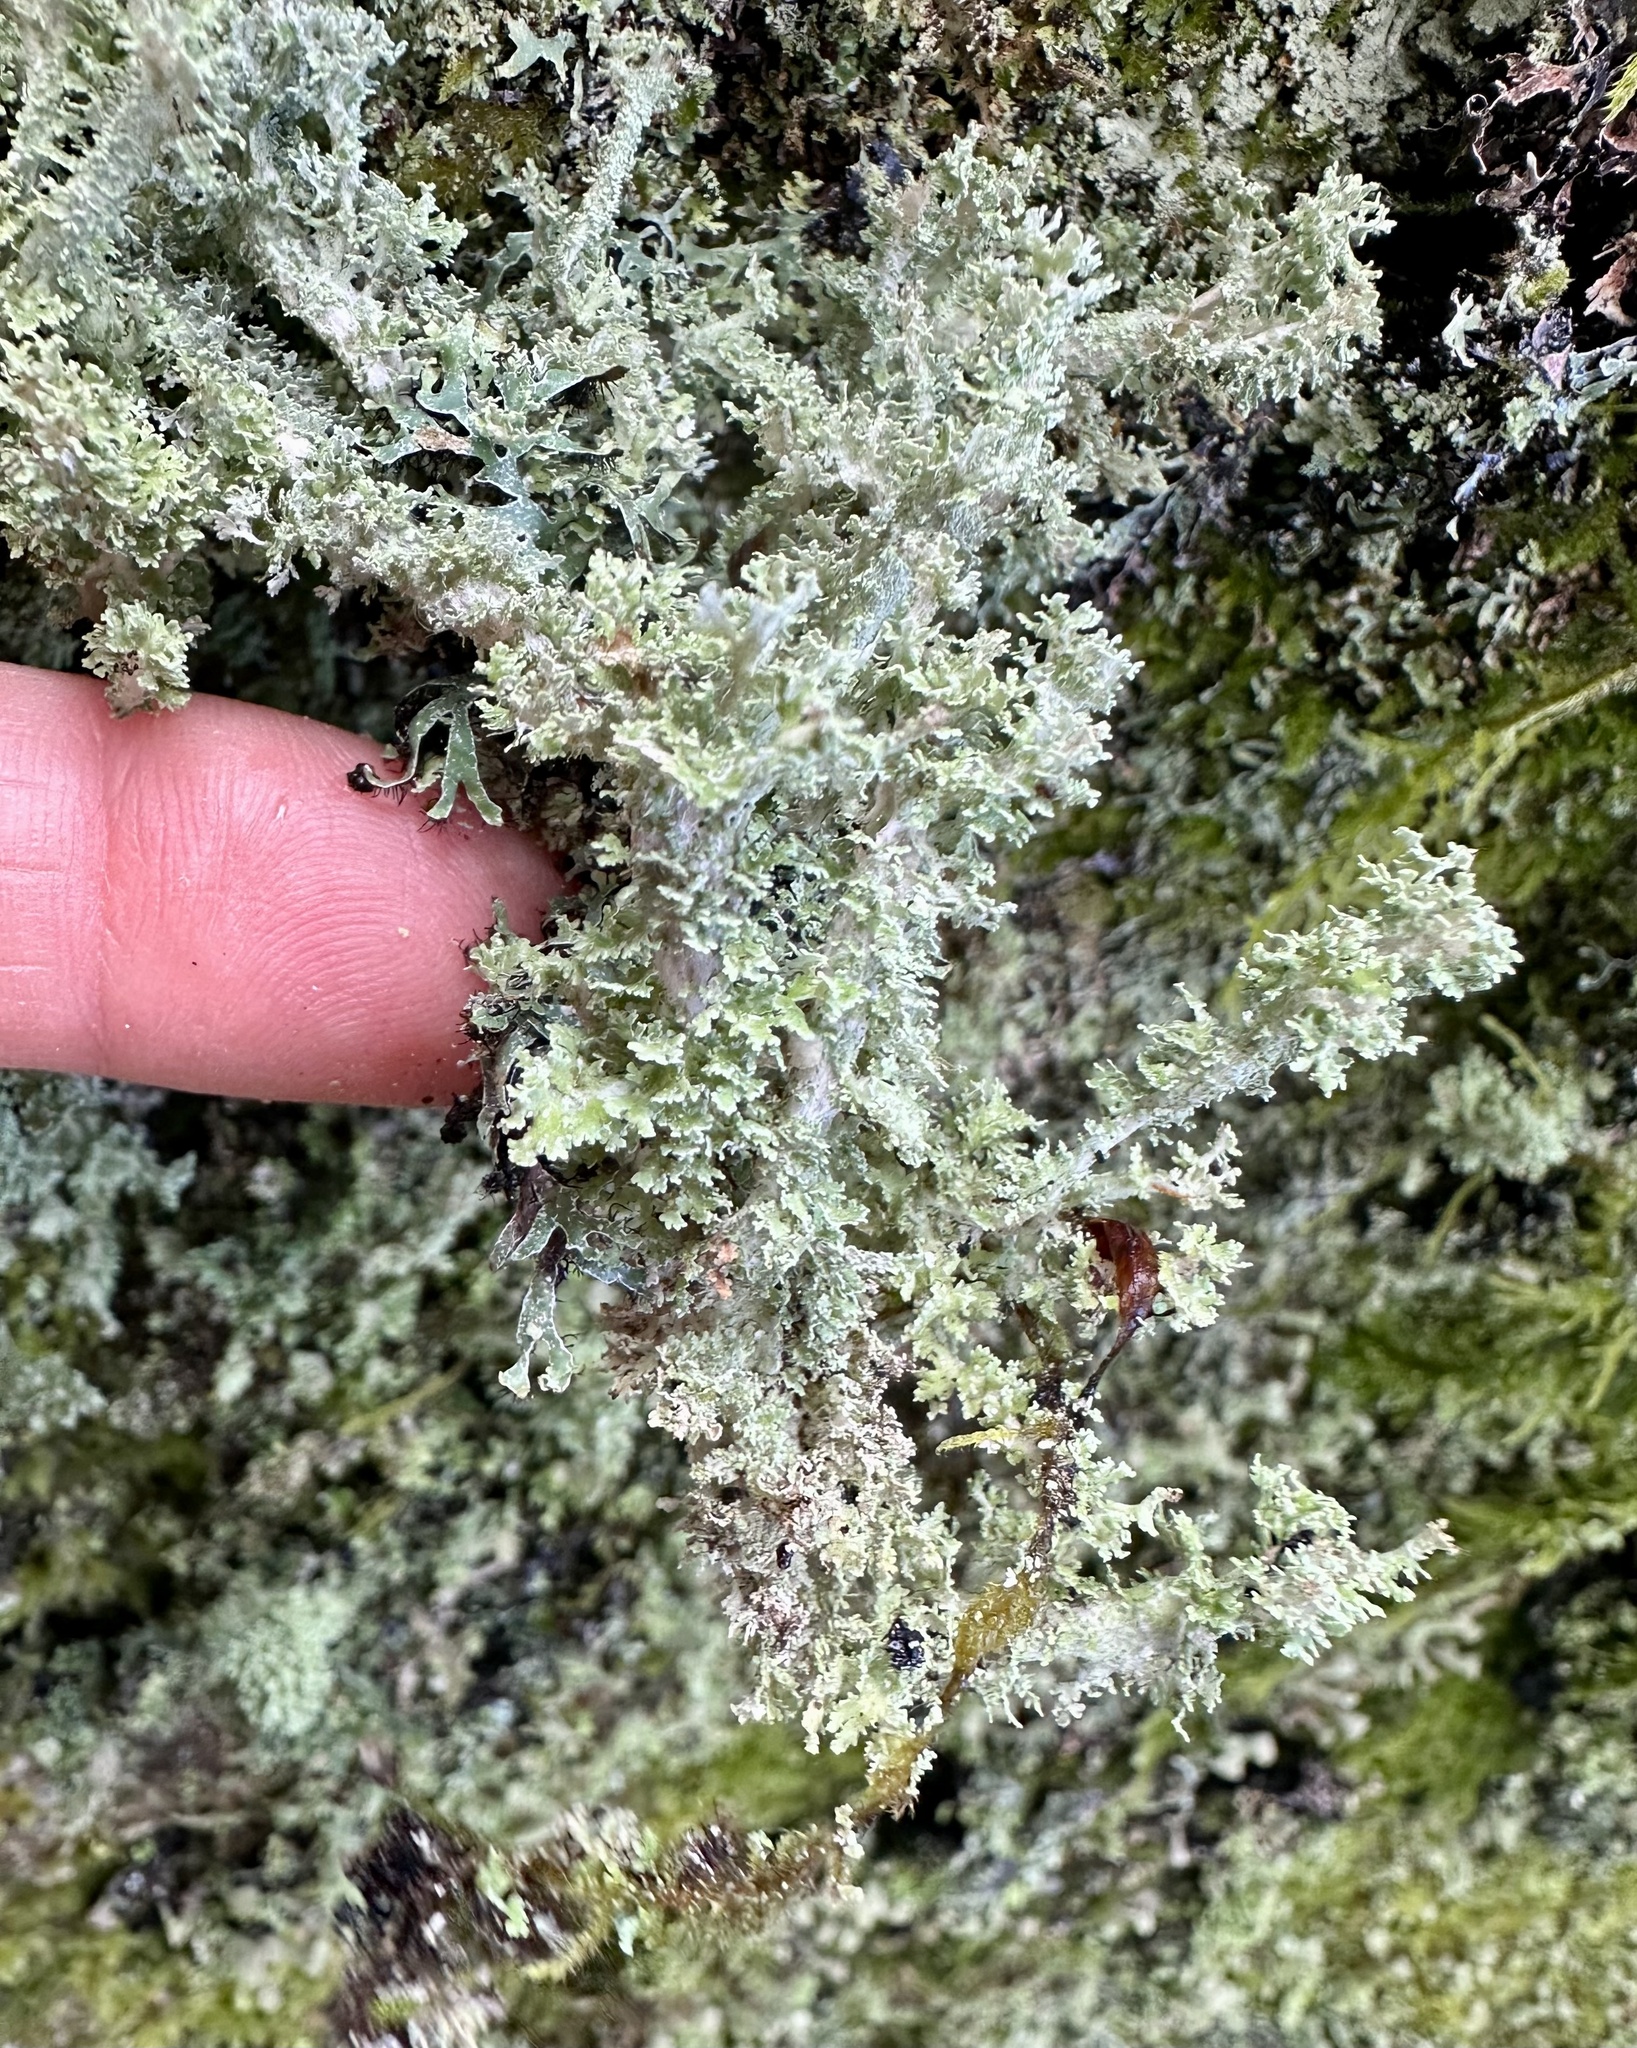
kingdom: Fungi
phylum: Ascomycota
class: Lecanoromycetes
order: Lecanorales
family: Cladoniaceae
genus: Cladonia
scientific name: Cladonia squamosa
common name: Dragon horn
